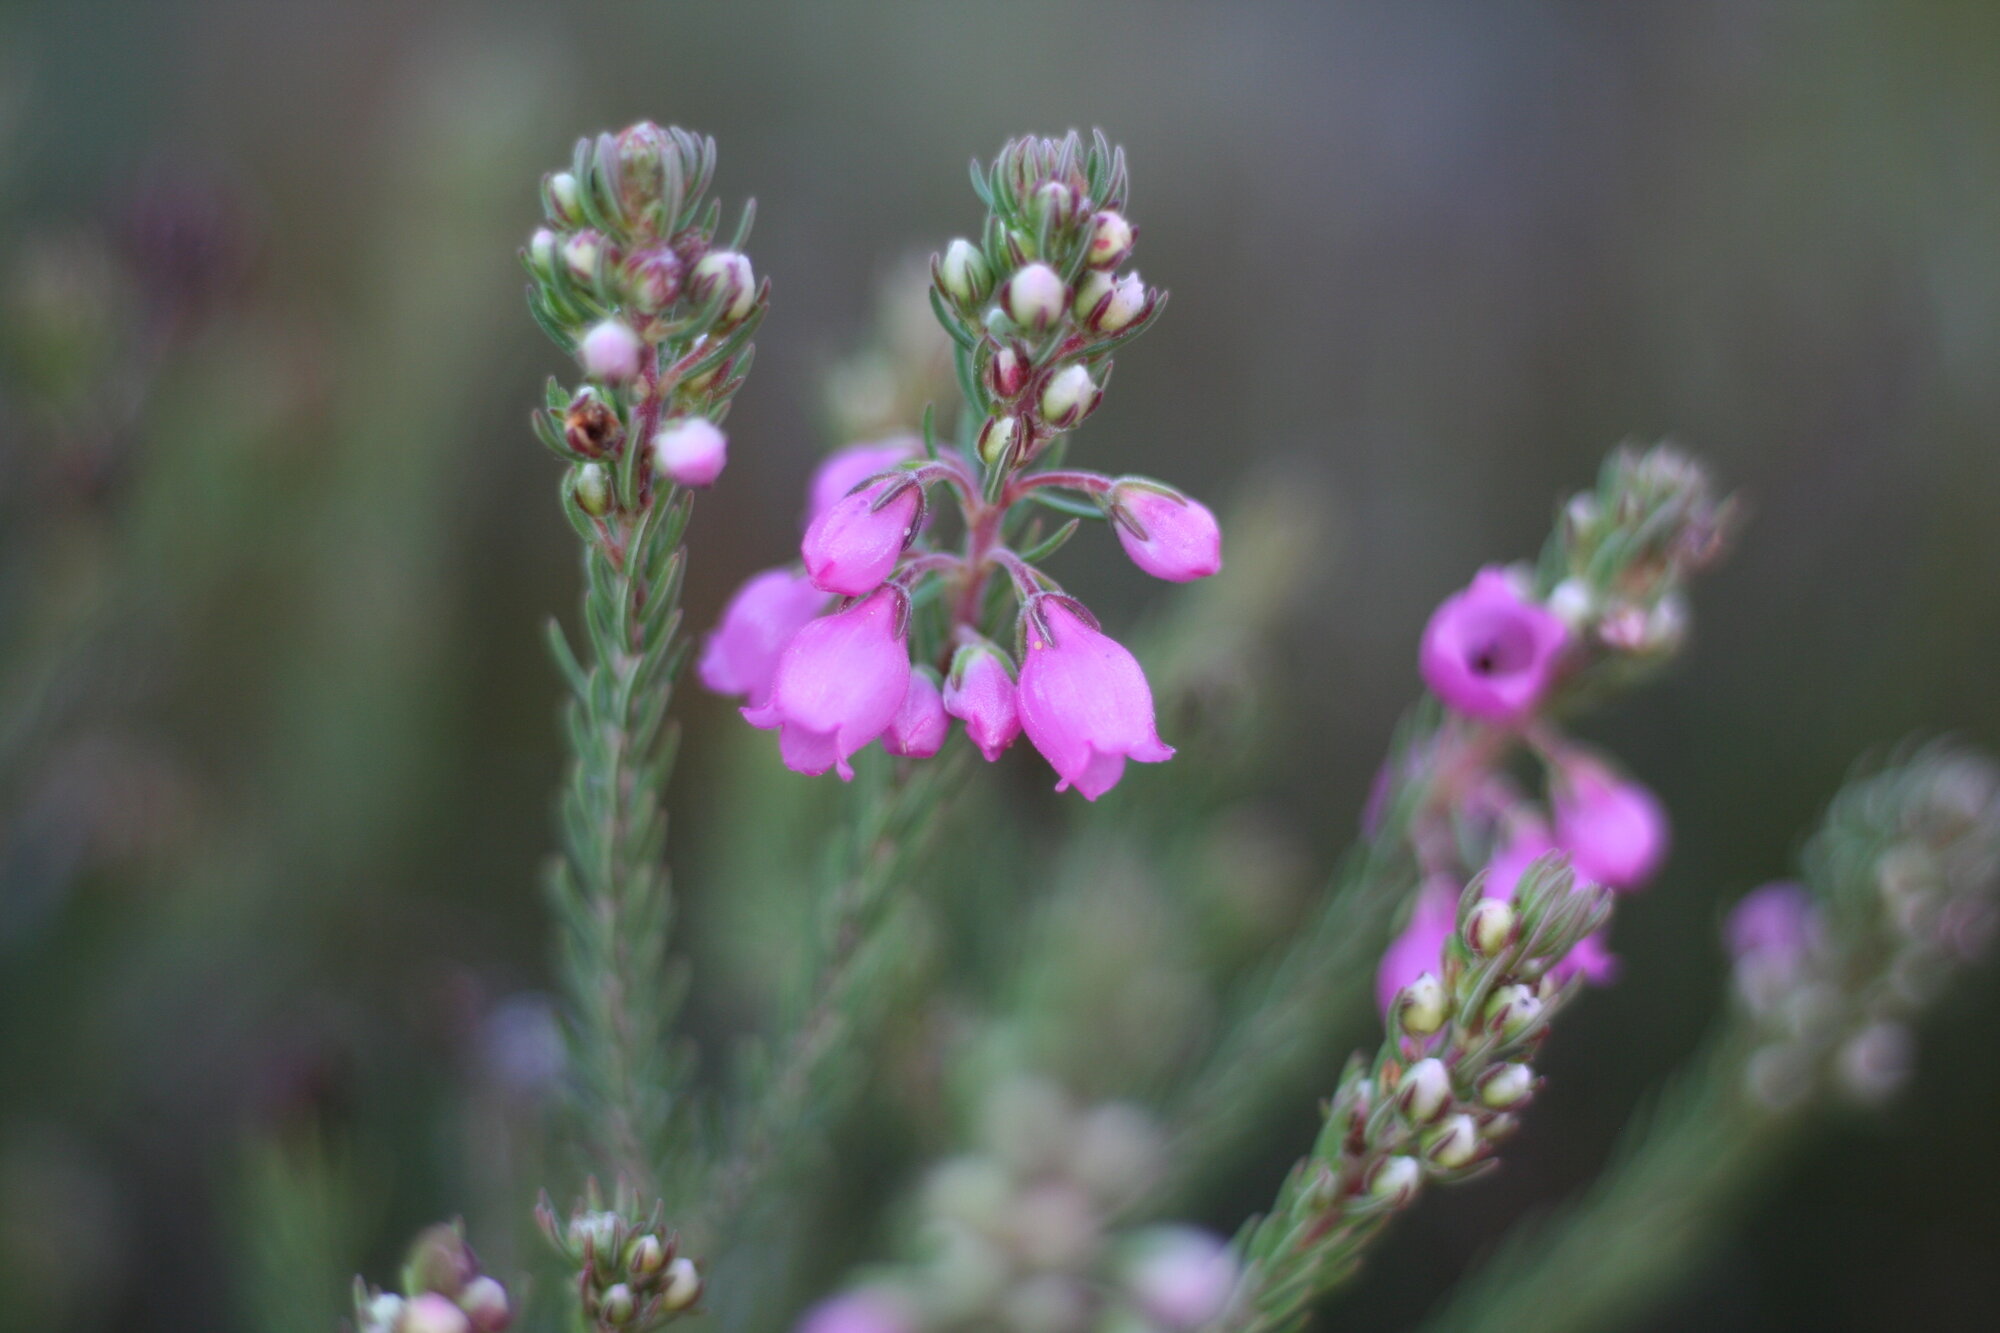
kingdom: Plantae
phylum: Tracheophyta
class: Magnoliopsida
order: Ericales
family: Ericaceae
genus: Erica
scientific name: Erica viscaria
